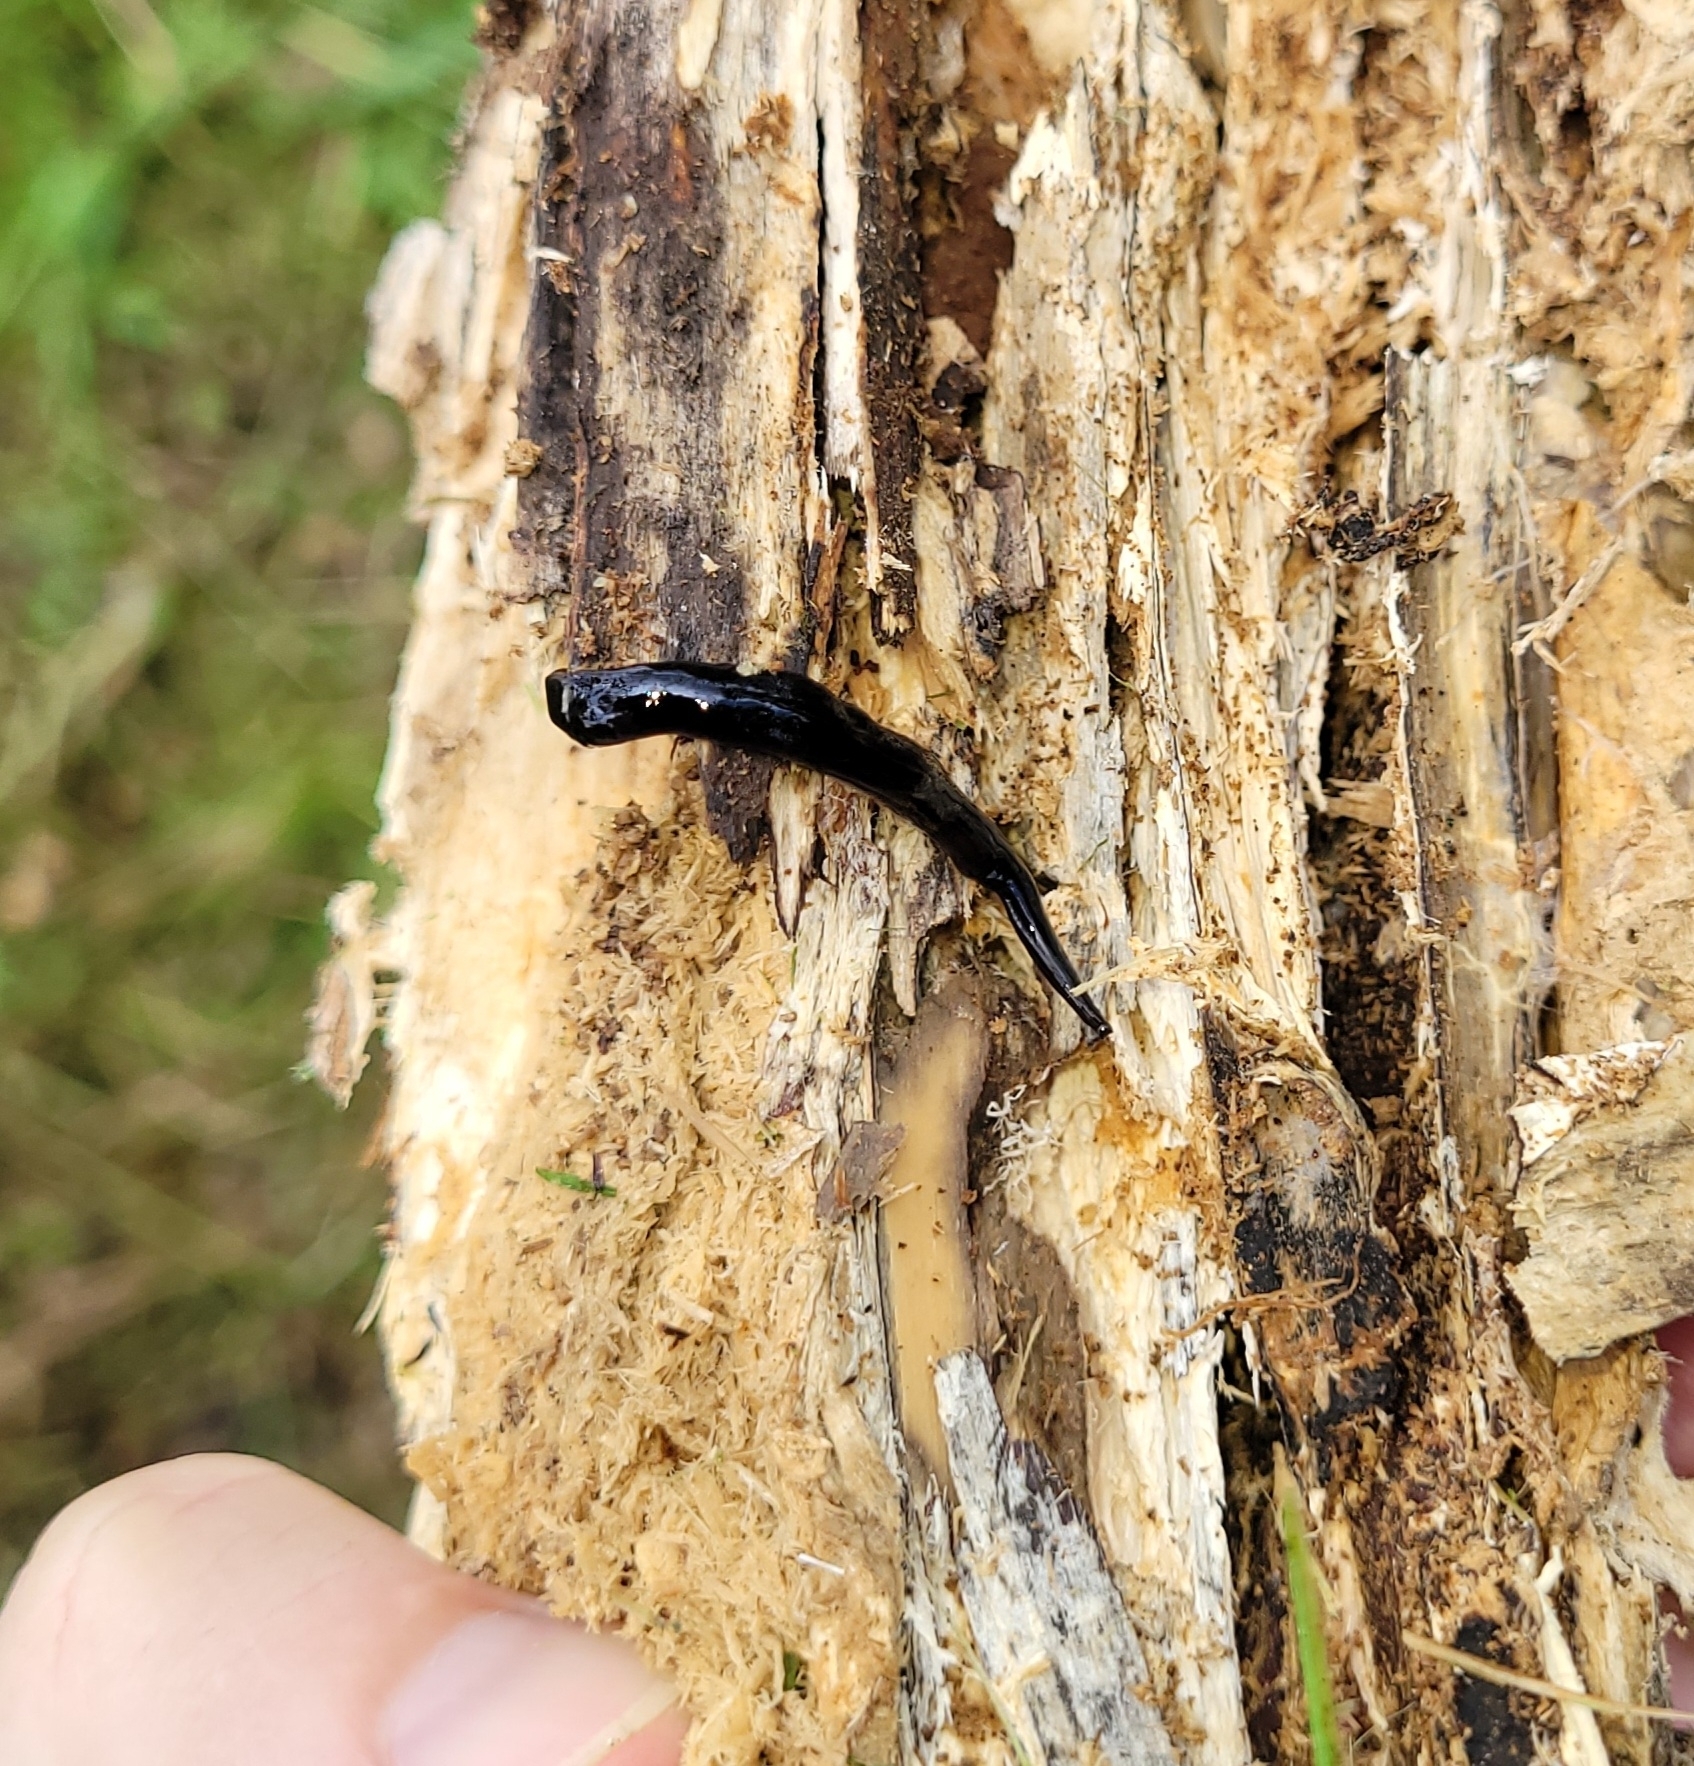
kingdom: Animalia
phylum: Platyhelminthes
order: Tricladida
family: Geoplanidae
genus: Platydemus
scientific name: Platydemus manokwari
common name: New guinea flatworm
